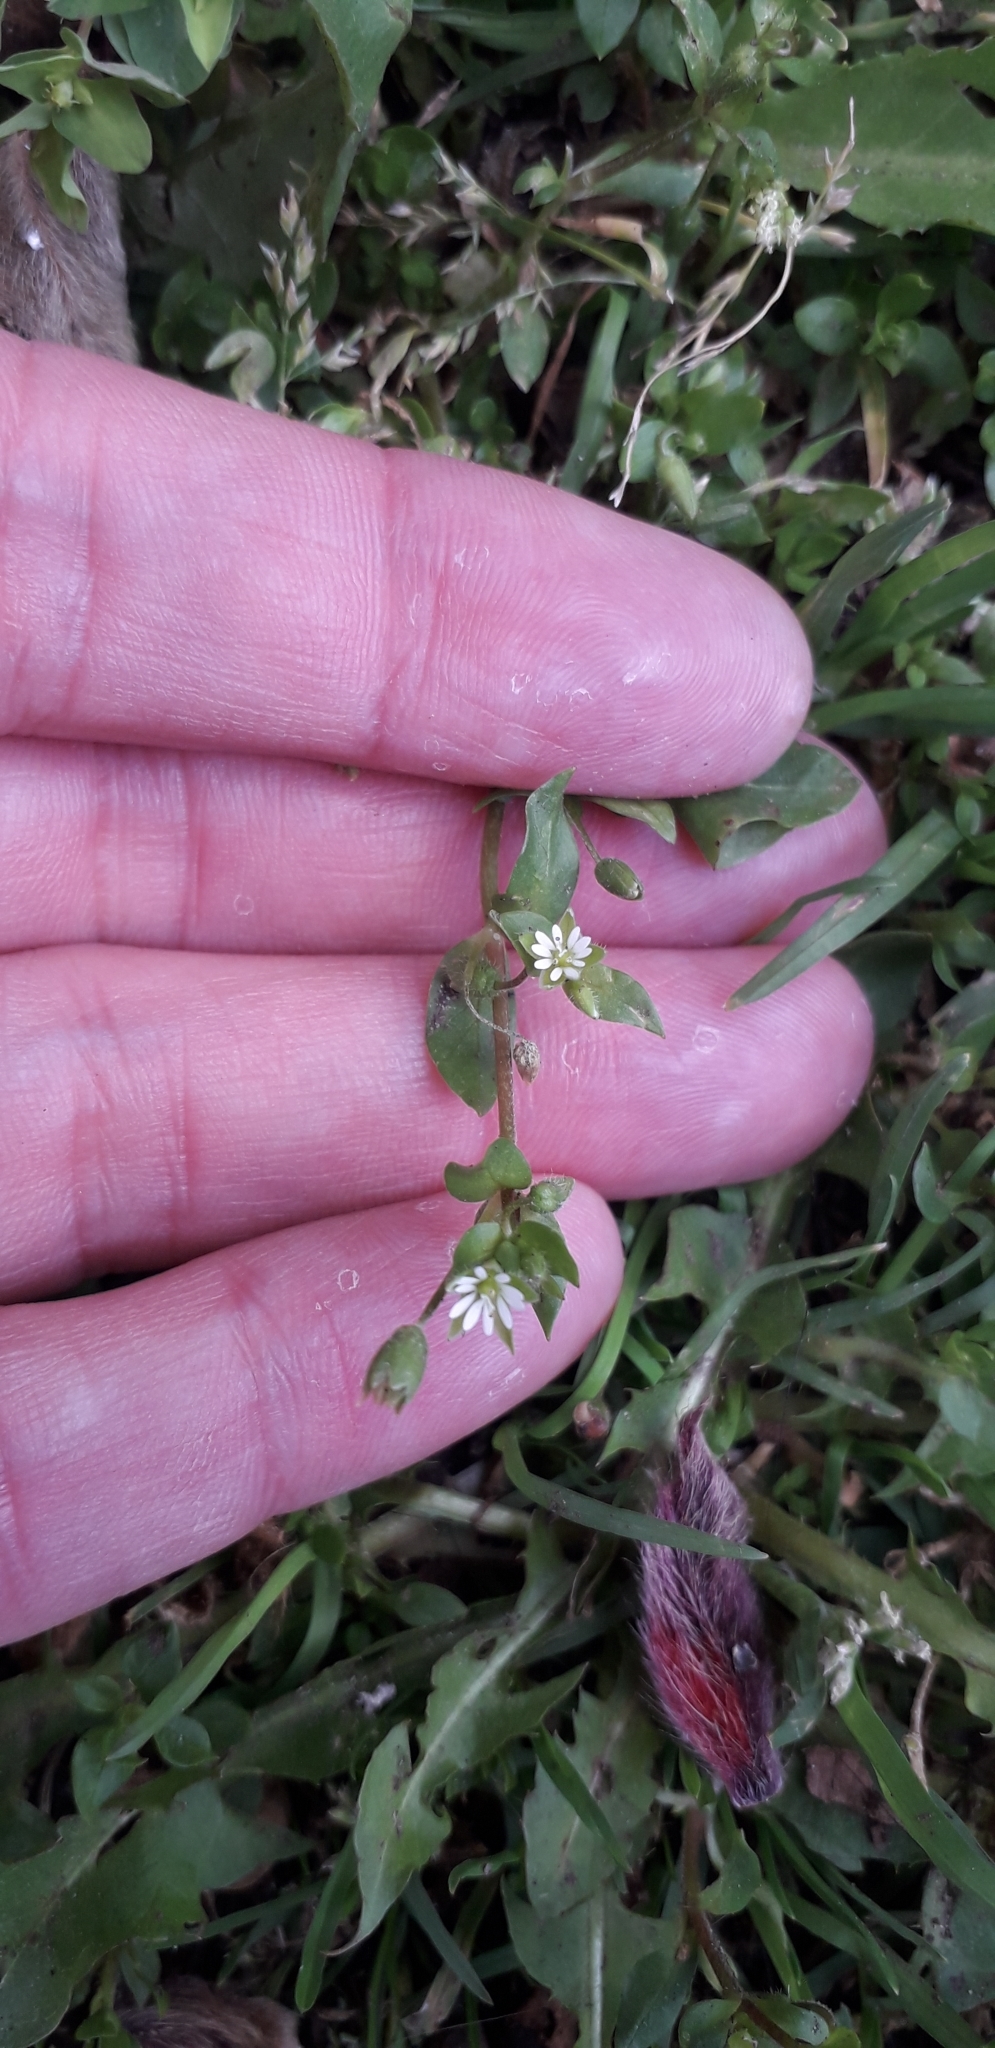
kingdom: Plantae
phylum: Tracheophyta
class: Magnoliopsida
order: Caryophyllales
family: Caryophyllaceae
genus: Stellaria
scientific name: Stellaria media
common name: Common chickweed
